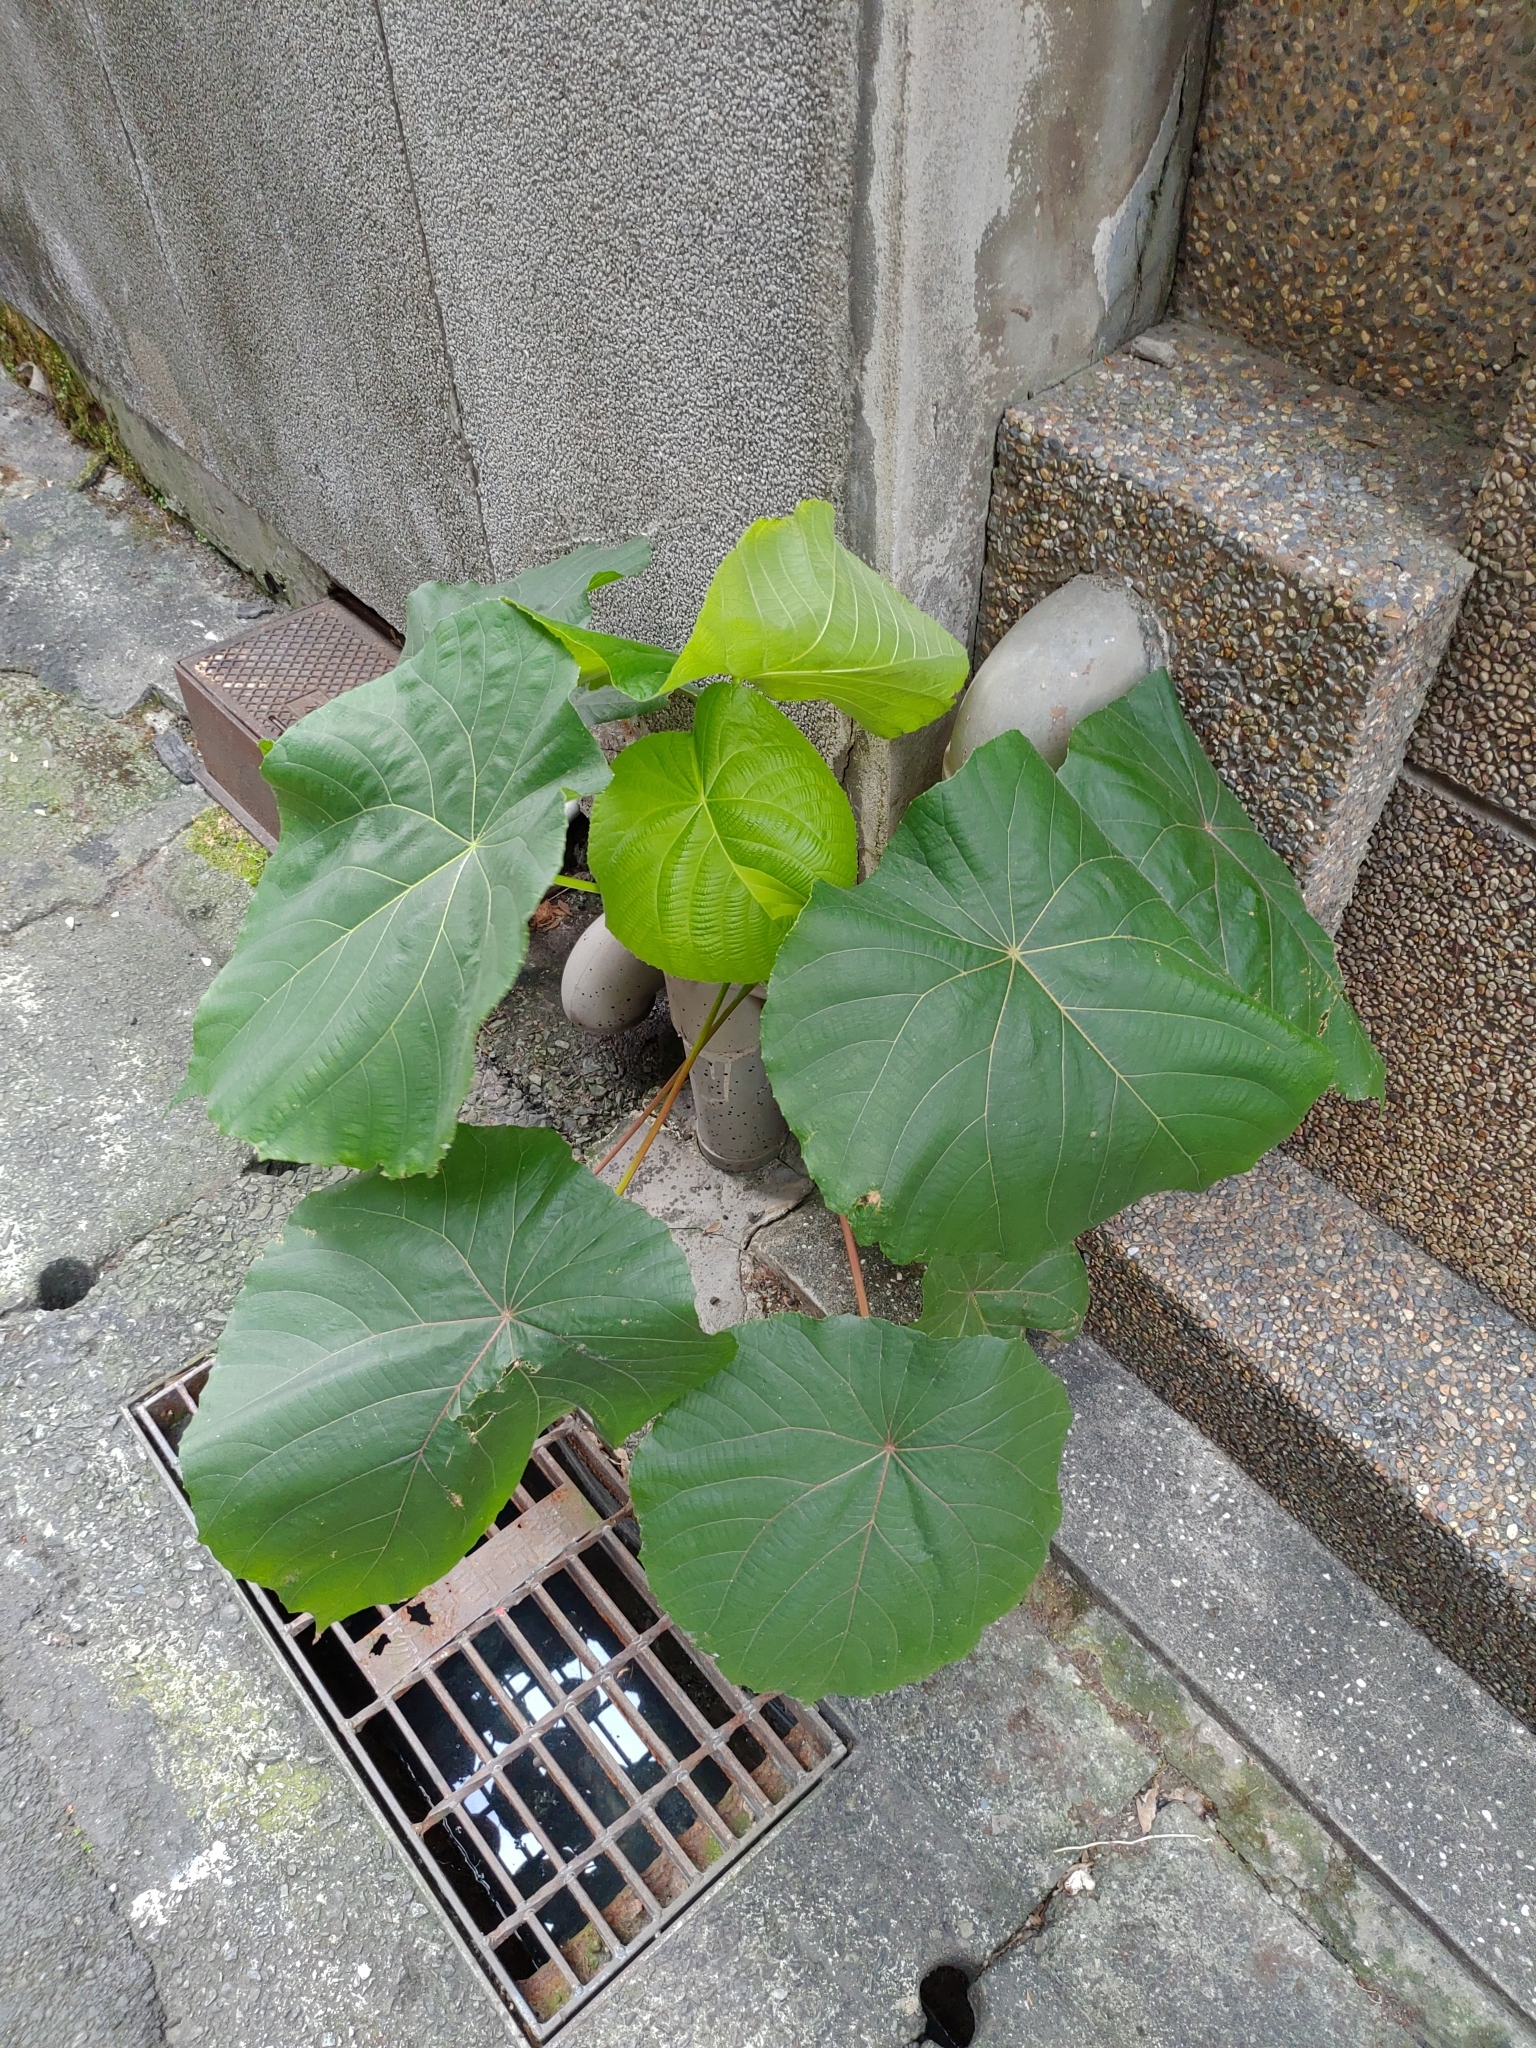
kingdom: Plantae
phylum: Tracheophyta
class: Magnoliopsida
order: Malpighiales
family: Euphorbiaceae
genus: Macaranga
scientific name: Macaranga tanarius
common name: Parasol leaf tree
